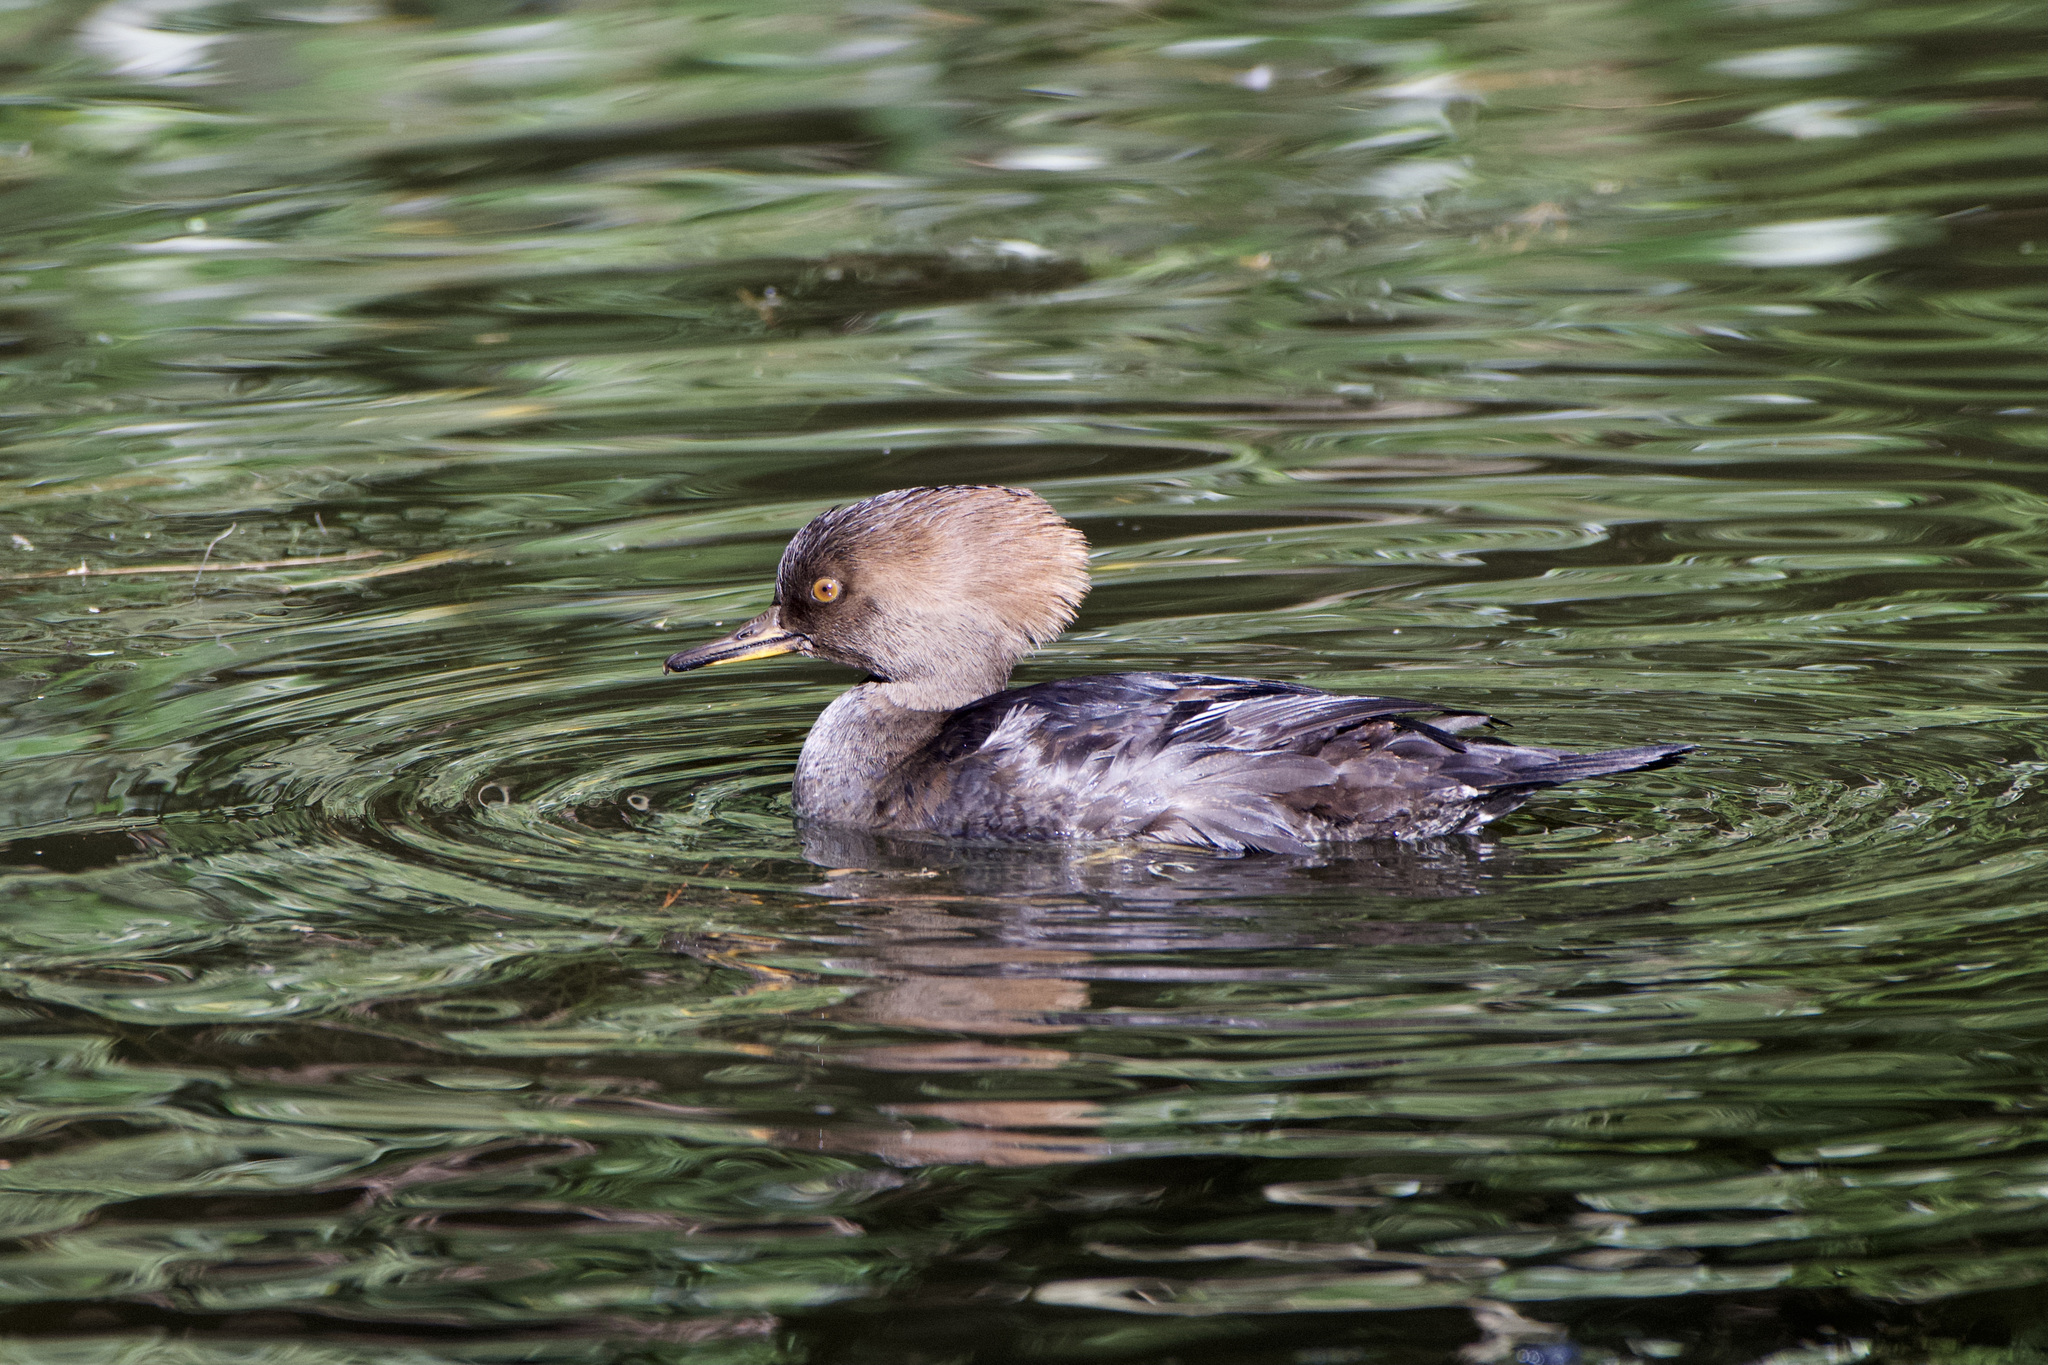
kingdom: Animalia
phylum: Chordata
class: Aves
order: Anseriformes
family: Anatidae
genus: Lophodytes
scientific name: Lophodytes cucullatus
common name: Hooded merganser
